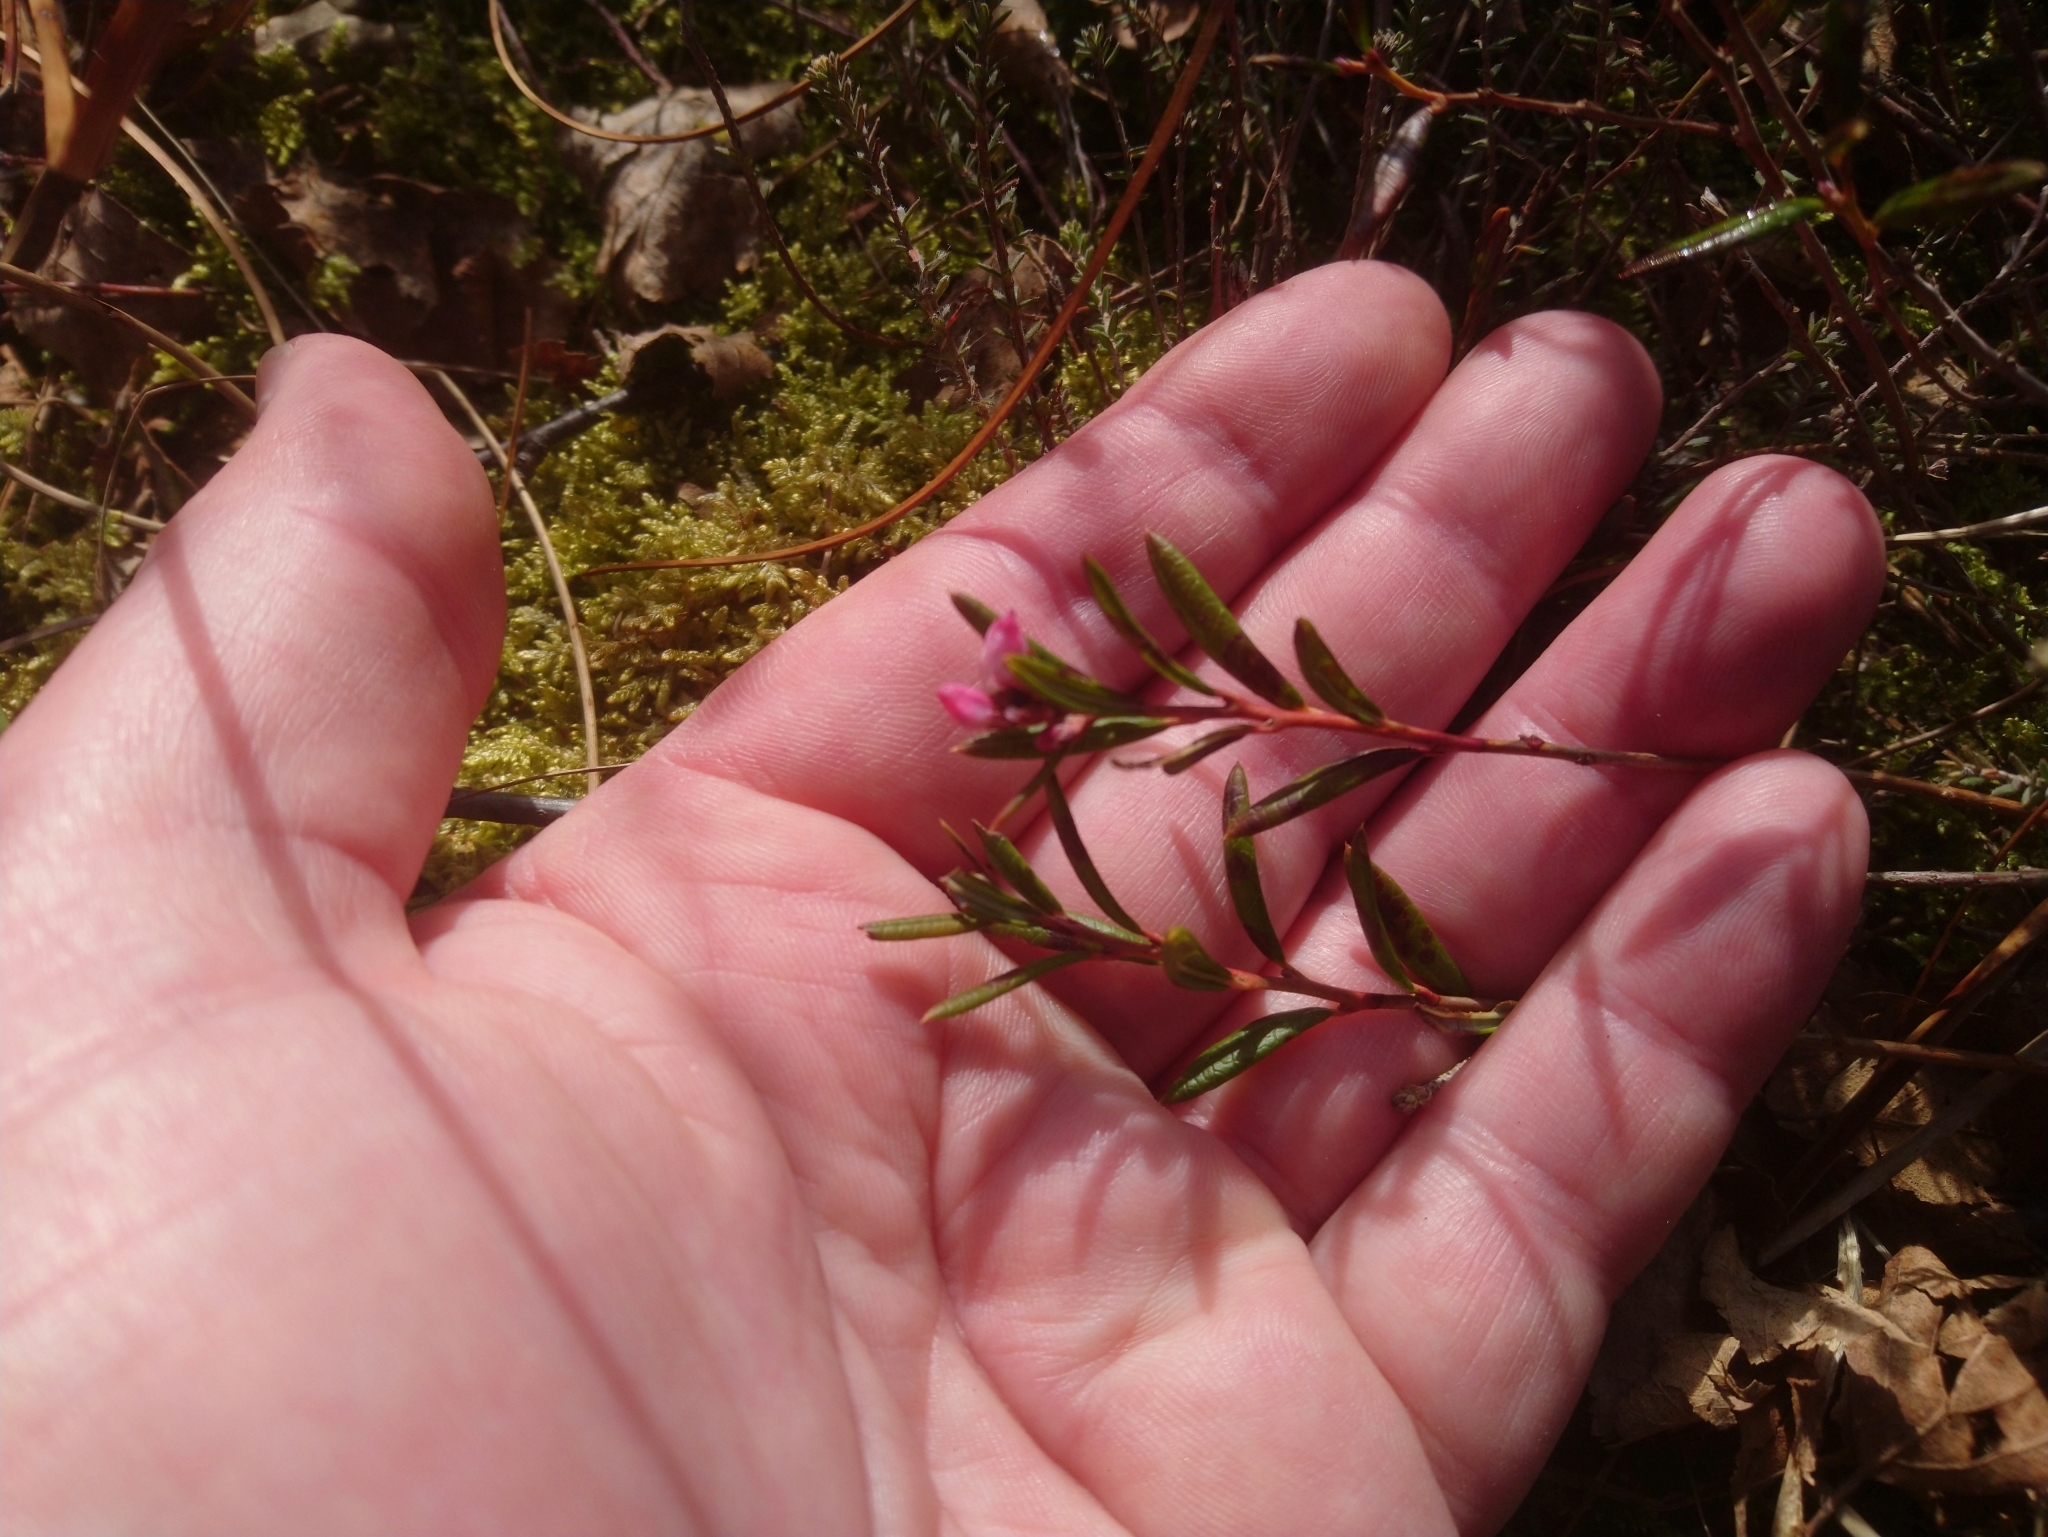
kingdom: Plantae
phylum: Tracheophyta
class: Magnoliopsida
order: Ericales
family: Ericaceae
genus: Andromeda
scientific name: Andromeda polifolia
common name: Bog-rosemary
